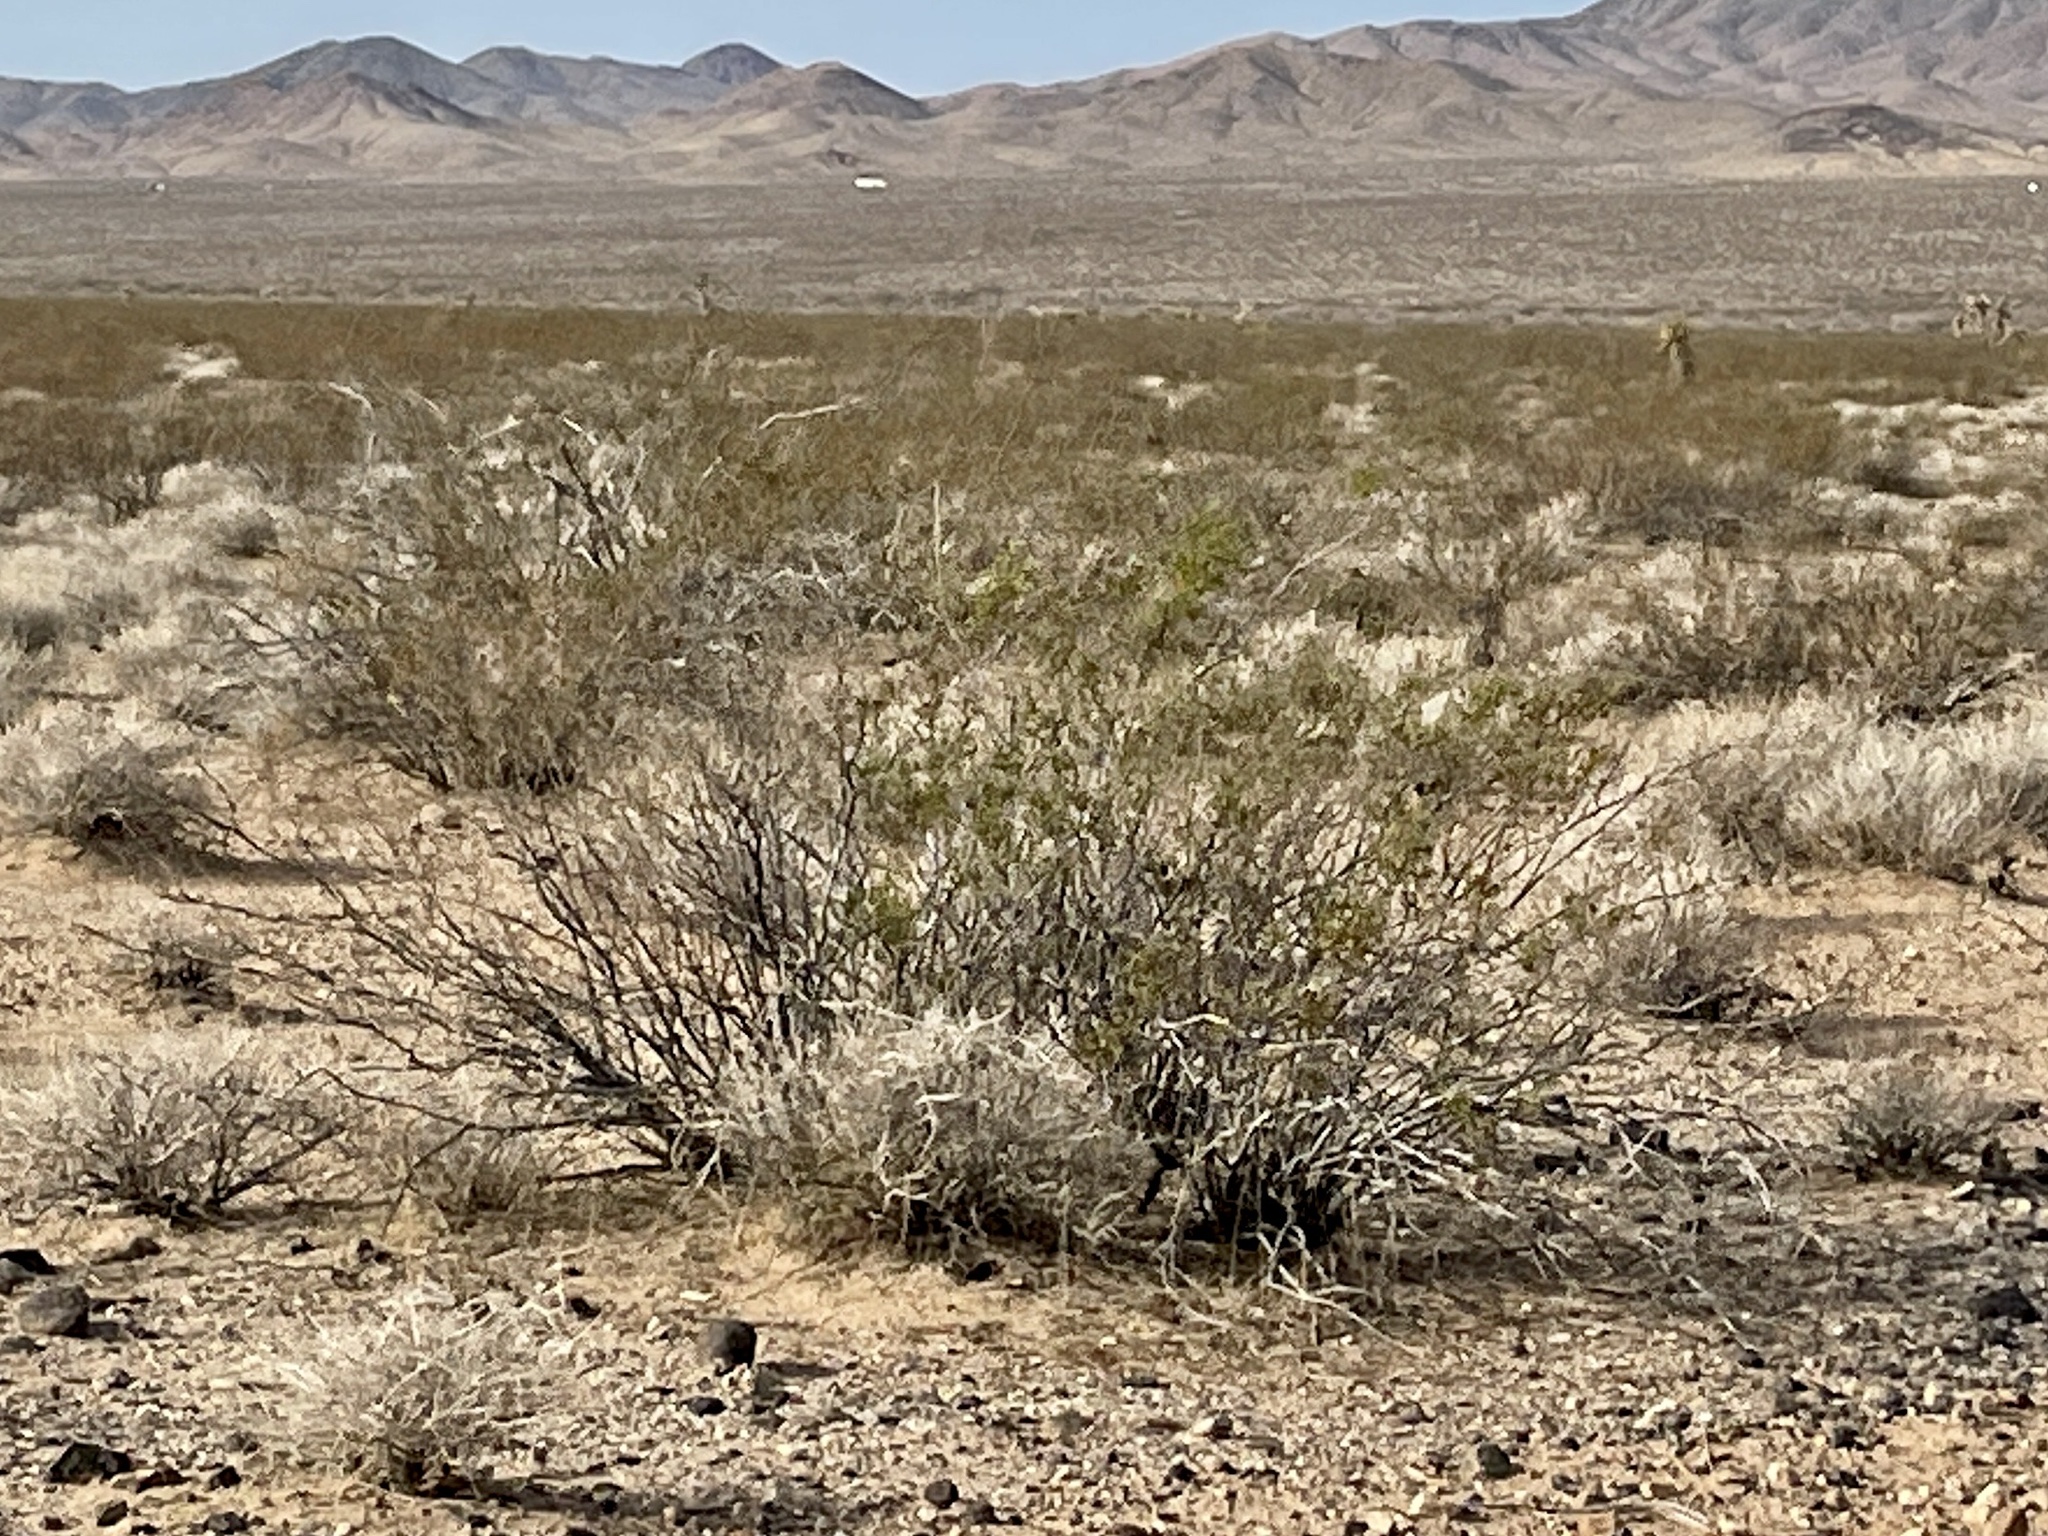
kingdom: Plantae
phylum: Tracheophyta
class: Magnoliopsida
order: Zygophyllales
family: Zygophyllaceae
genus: Larrea
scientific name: Larrea tridentata
